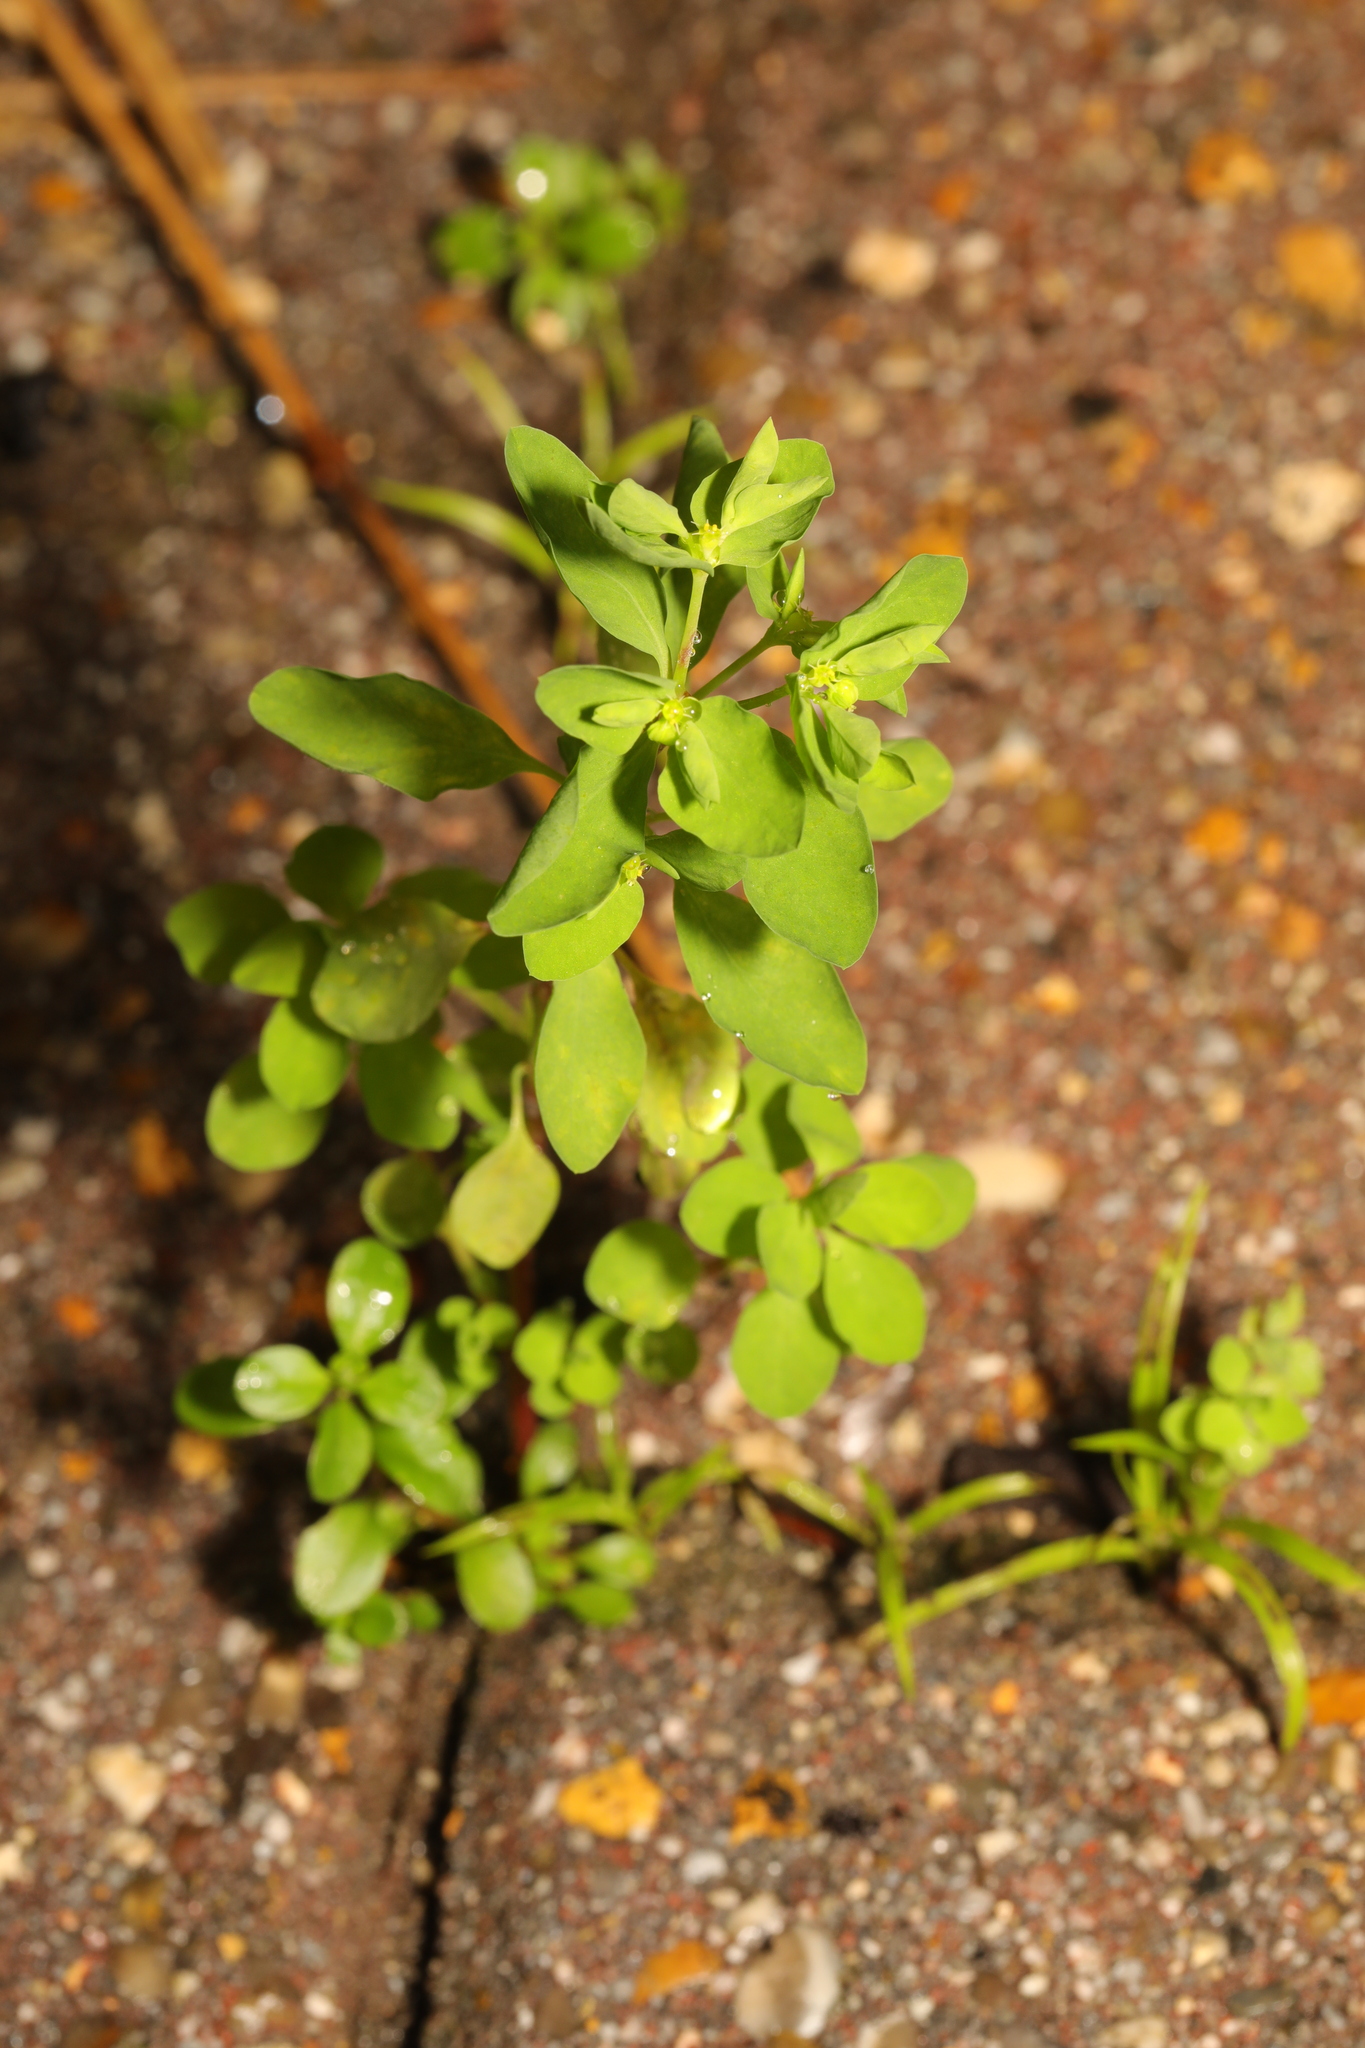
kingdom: Plantae
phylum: Tracheophyta
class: Magnoliopsida
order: Malpighiales
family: Euphorbiaceae
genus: Euphorbia
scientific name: Euphorbia peplus
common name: Petty spurge
